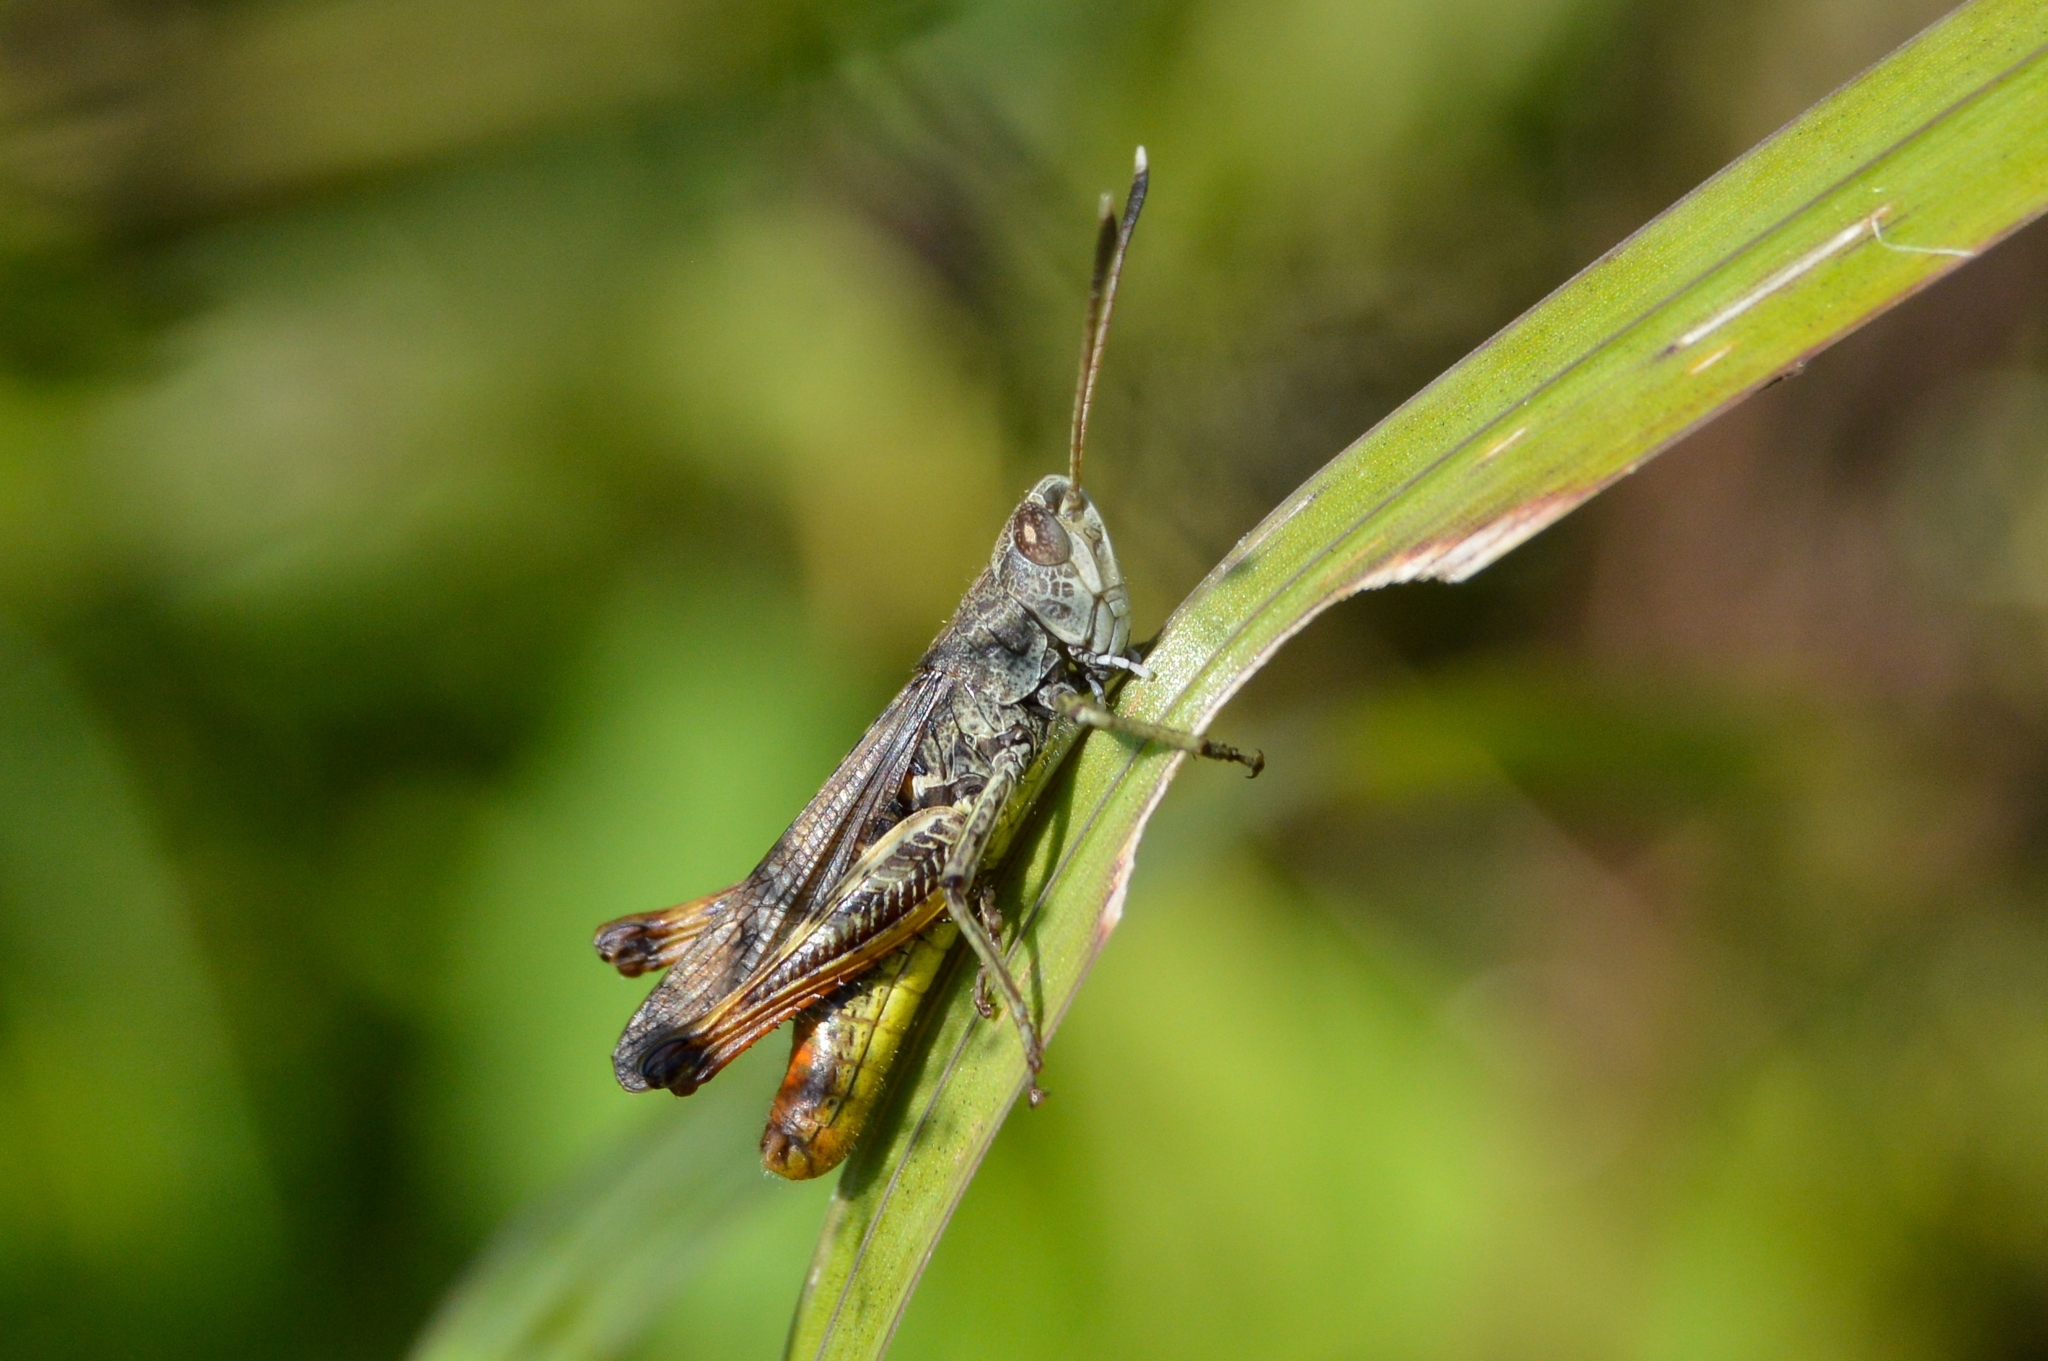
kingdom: Animalia
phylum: Arthropoda
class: Insecta
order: Orthoptera
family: Acrididae
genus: Gomphocerippus
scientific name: Gomphocerippus rufus
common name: Rufous grasshopper
